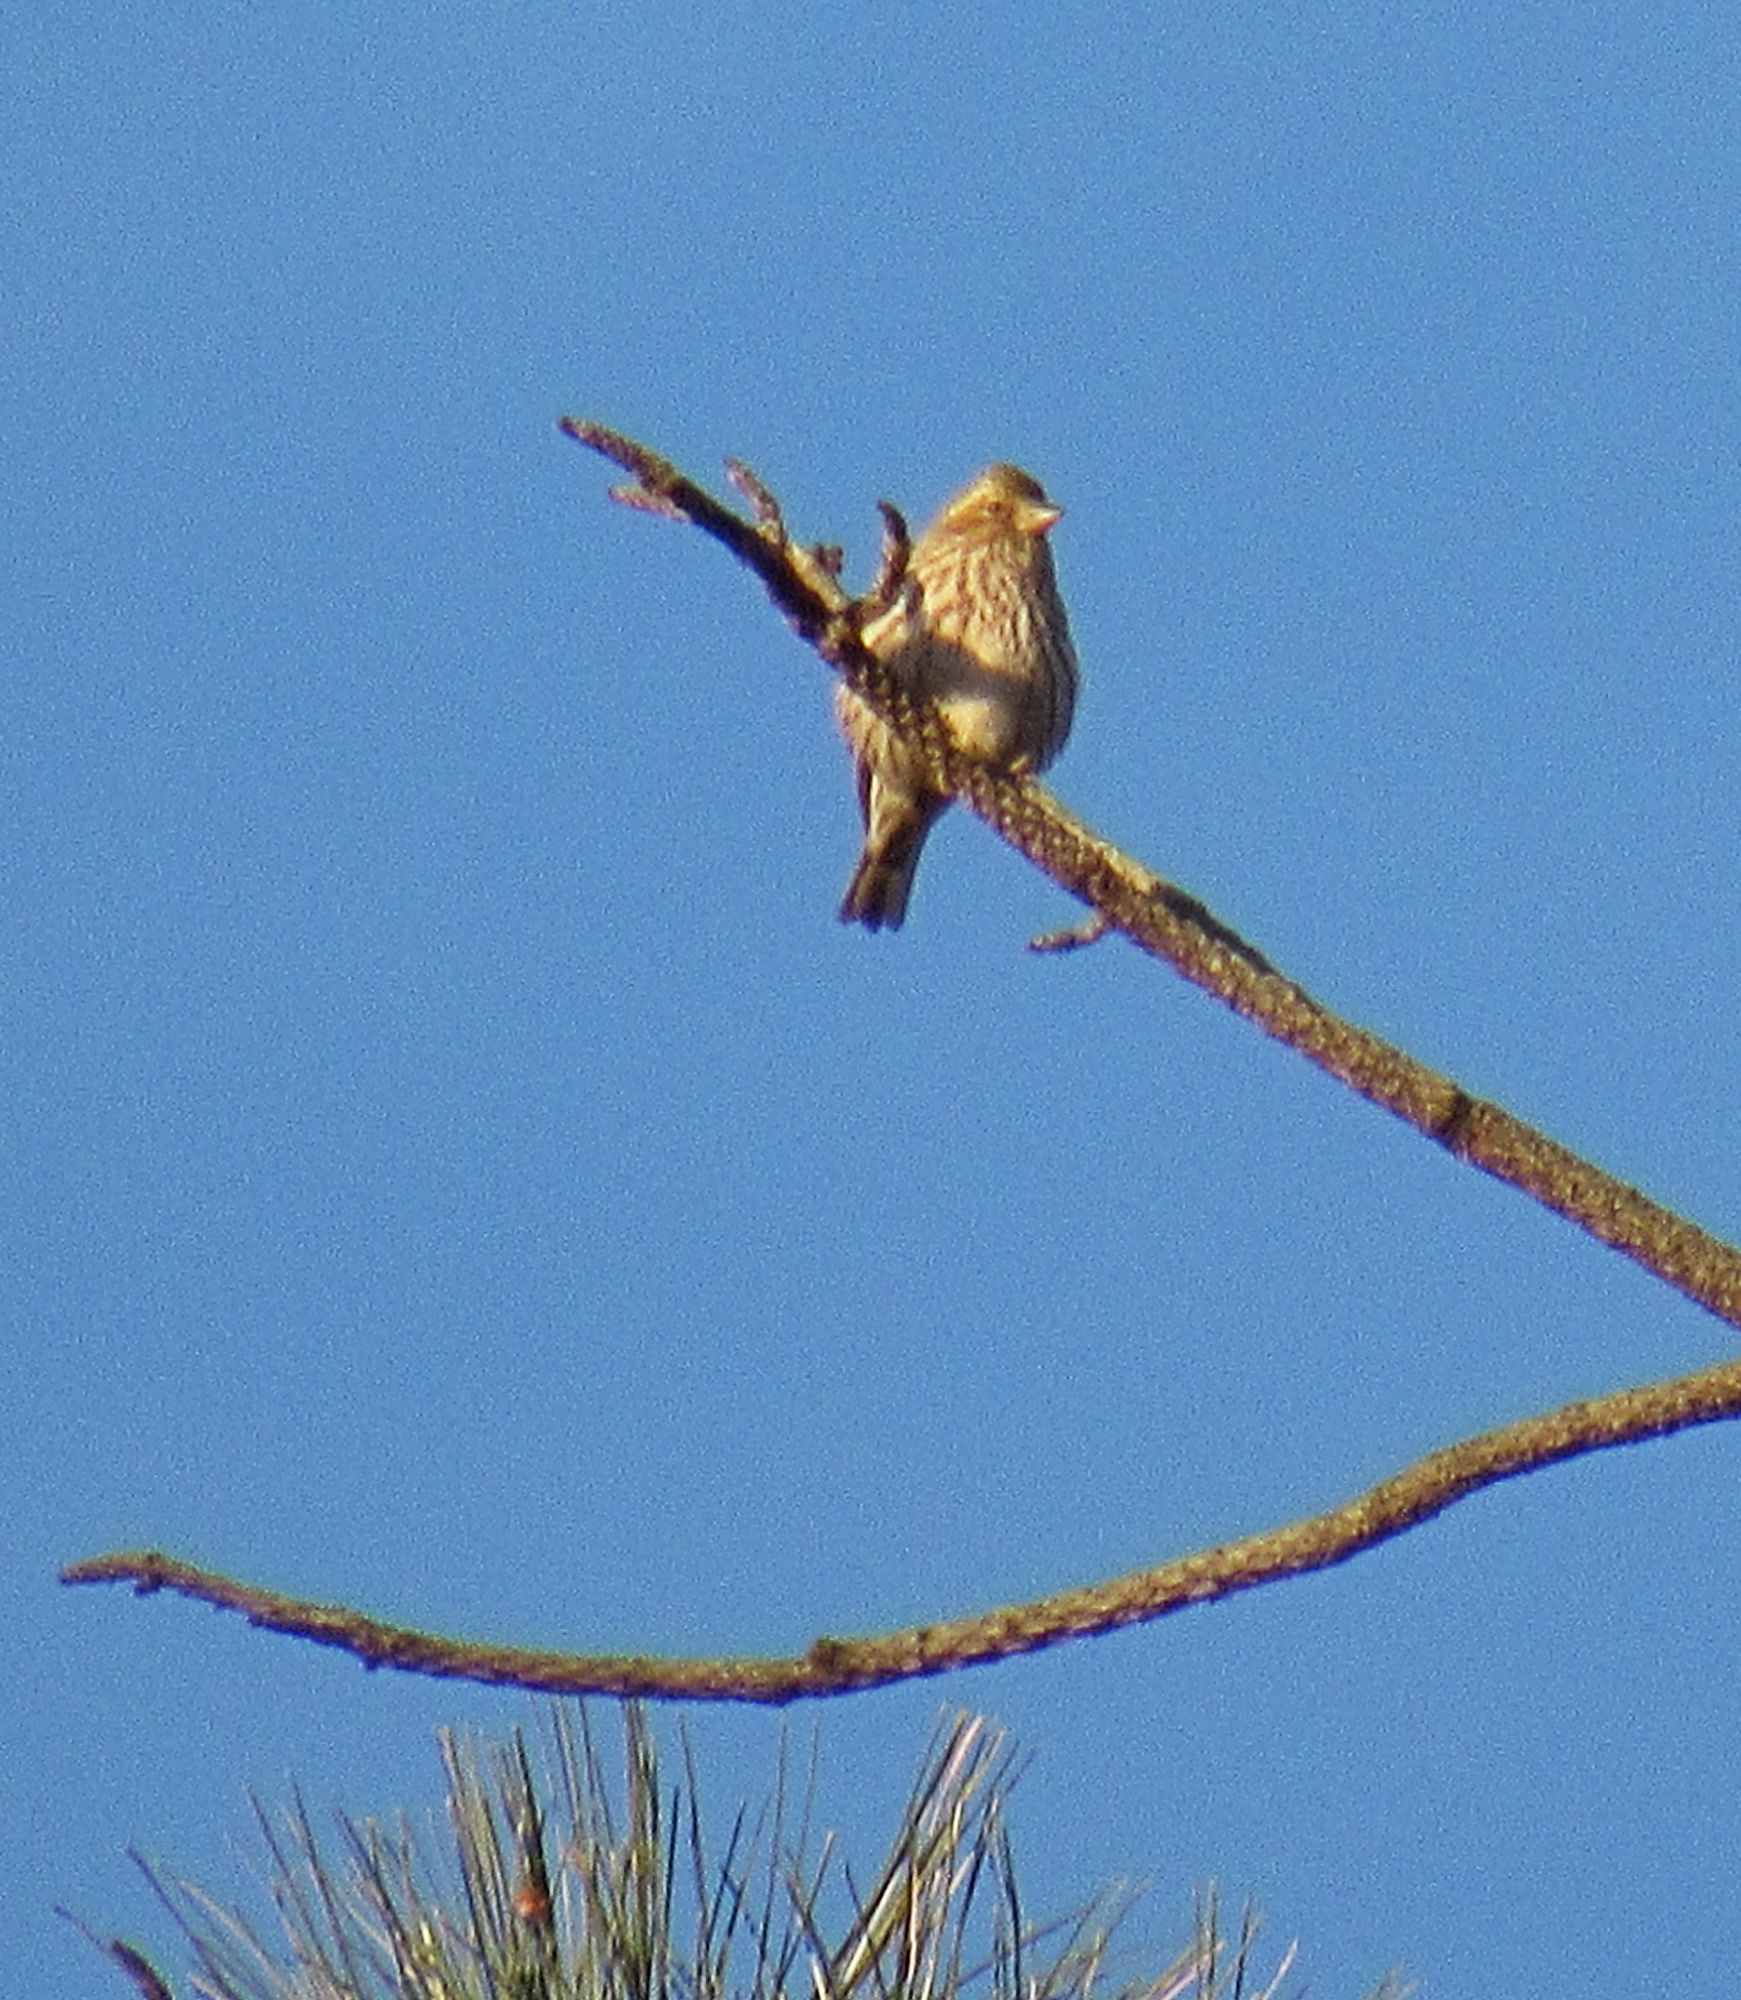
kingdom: Animalia
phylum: Chordata
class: Aves
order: Passeriformes
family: Fringillidae
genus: Haemorhous
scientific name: Haemorhous cassinii
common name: Cassin's finch
